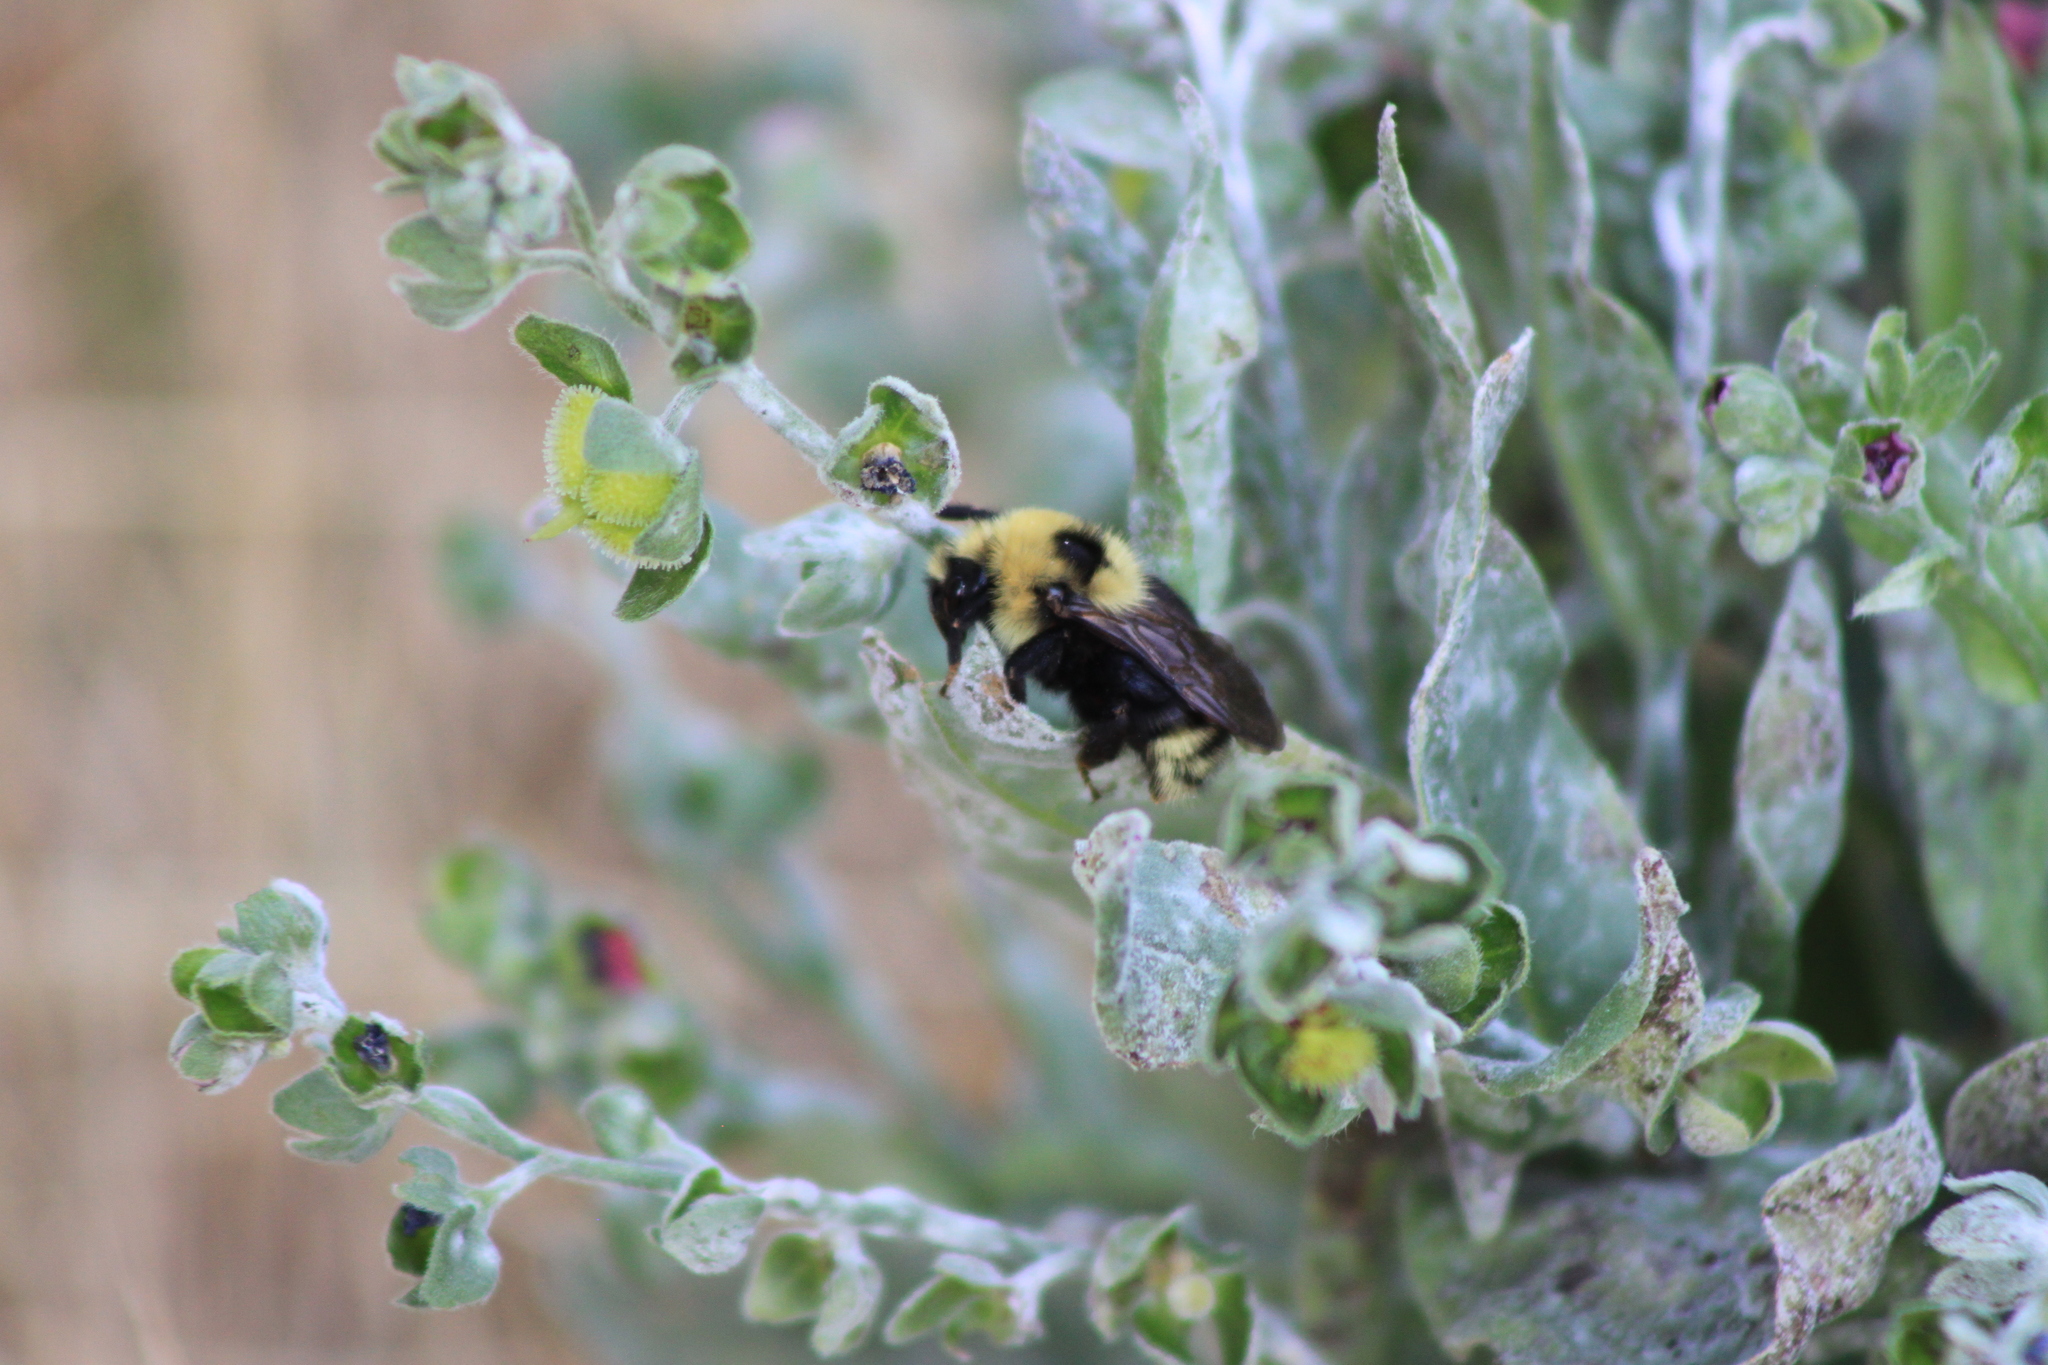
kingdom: Animalia
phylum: Arthropoda
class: Insecta
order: Hymenoptera
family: Apidae
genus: Bombus
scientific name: Bombus insularis
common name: Indiscriminate cuckoo bumble bee
